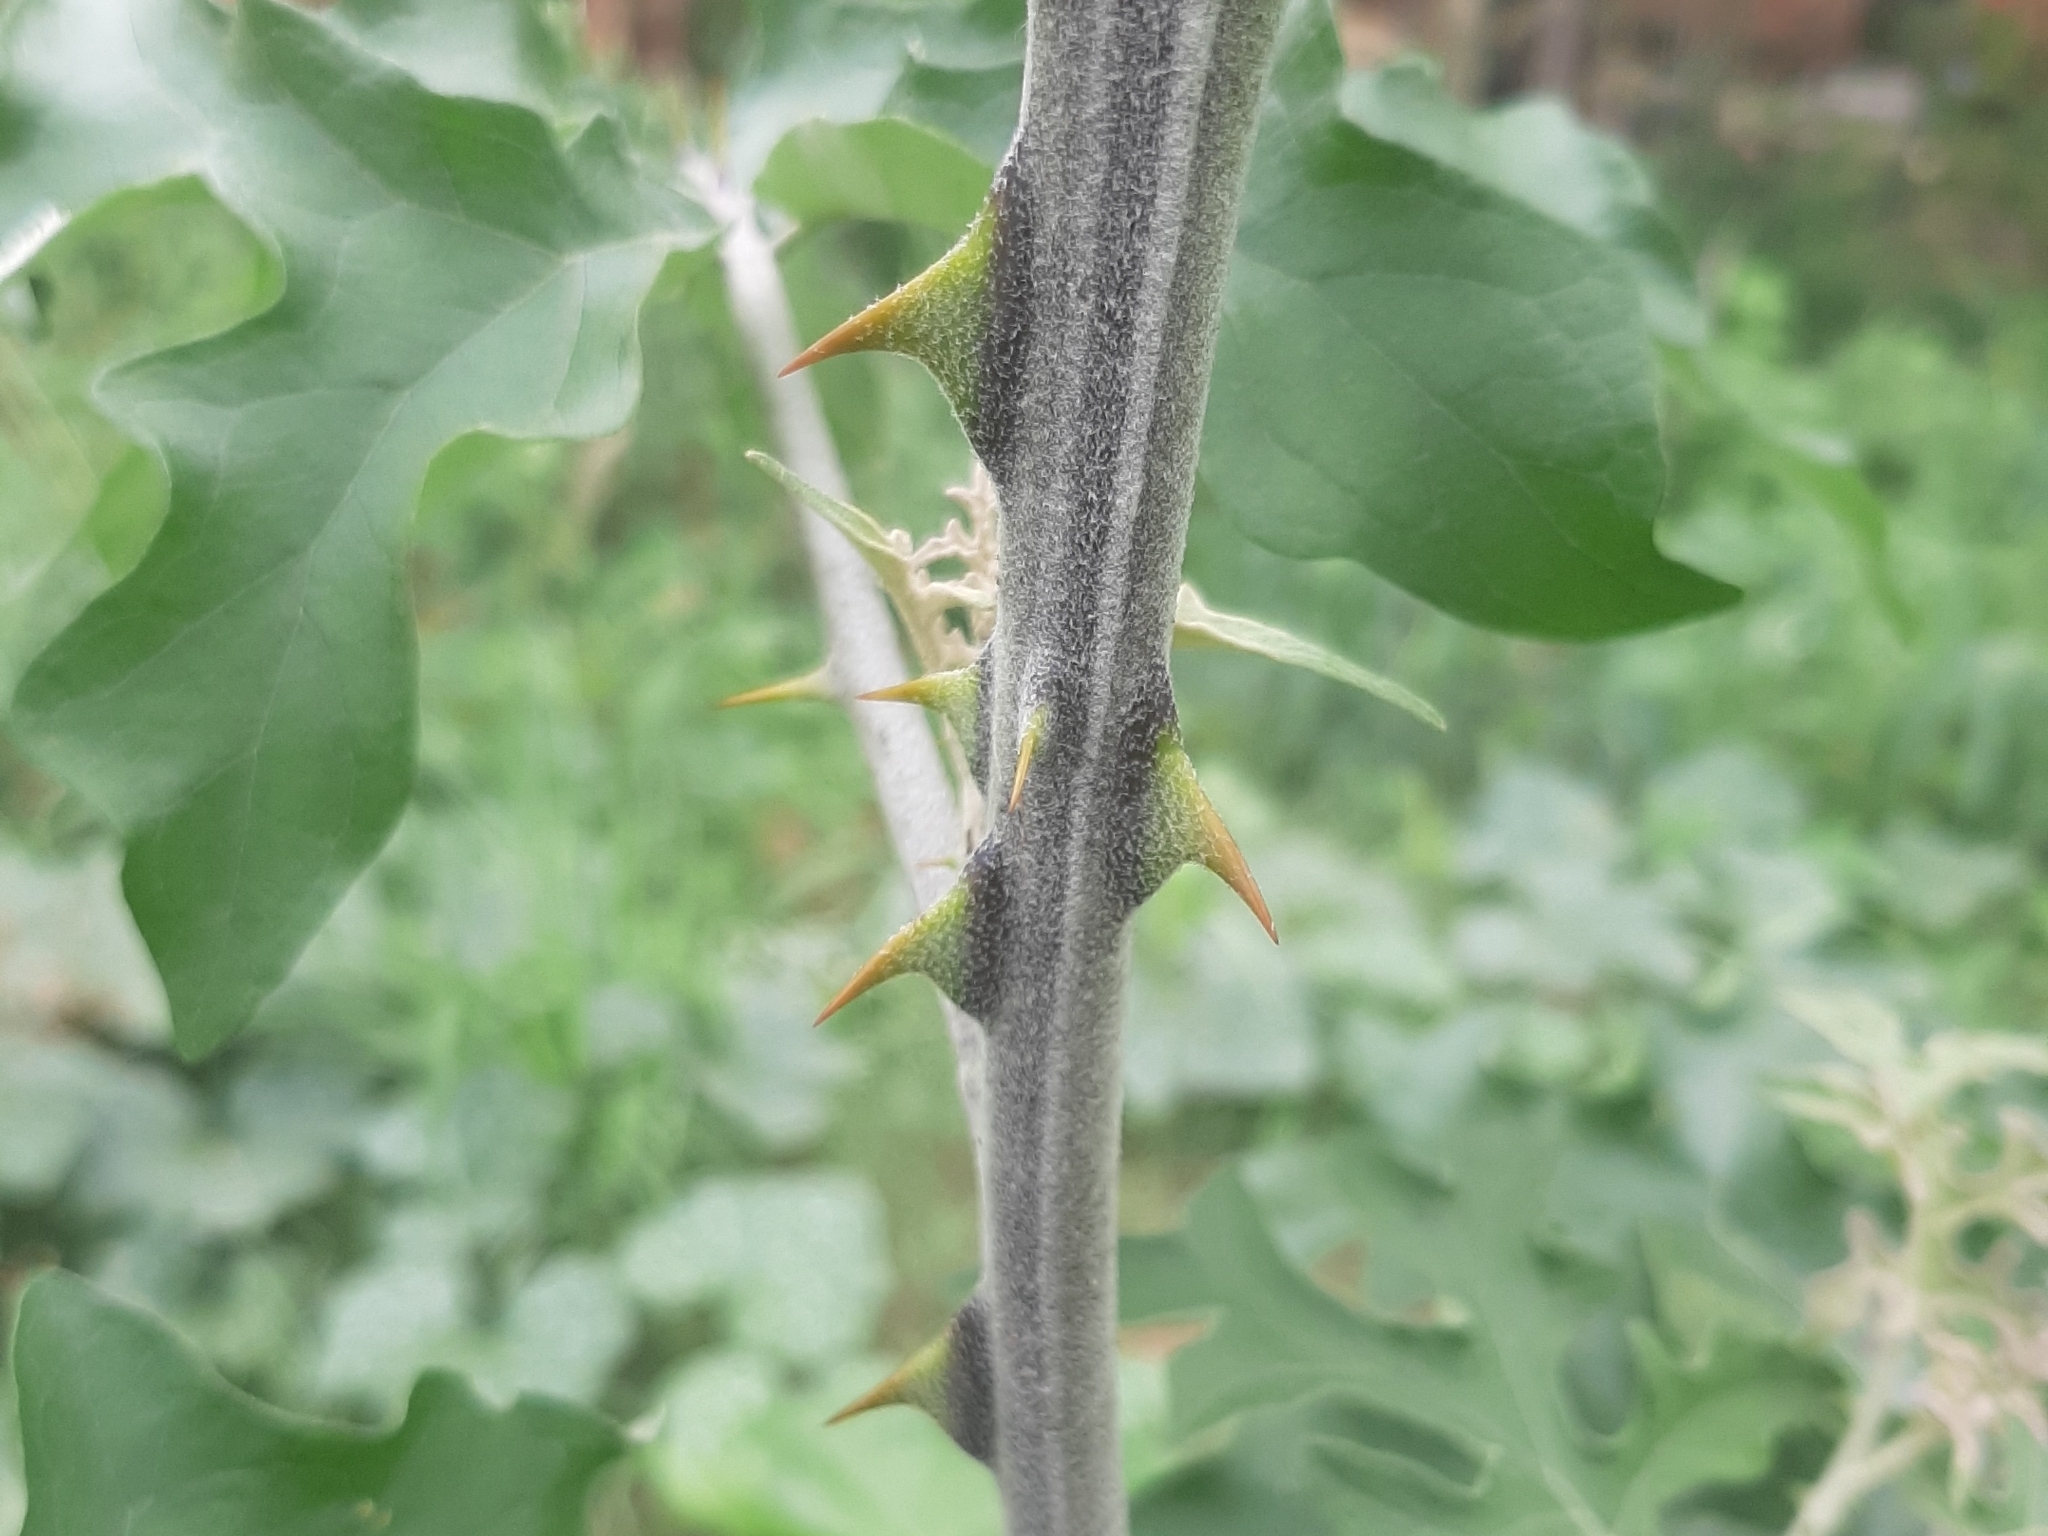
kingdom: Plantae
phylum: Tracheophyta
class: Magnoliopsida
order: Solanales
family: Solanaceae
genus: Solanum
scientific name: Solanum paniculatum
